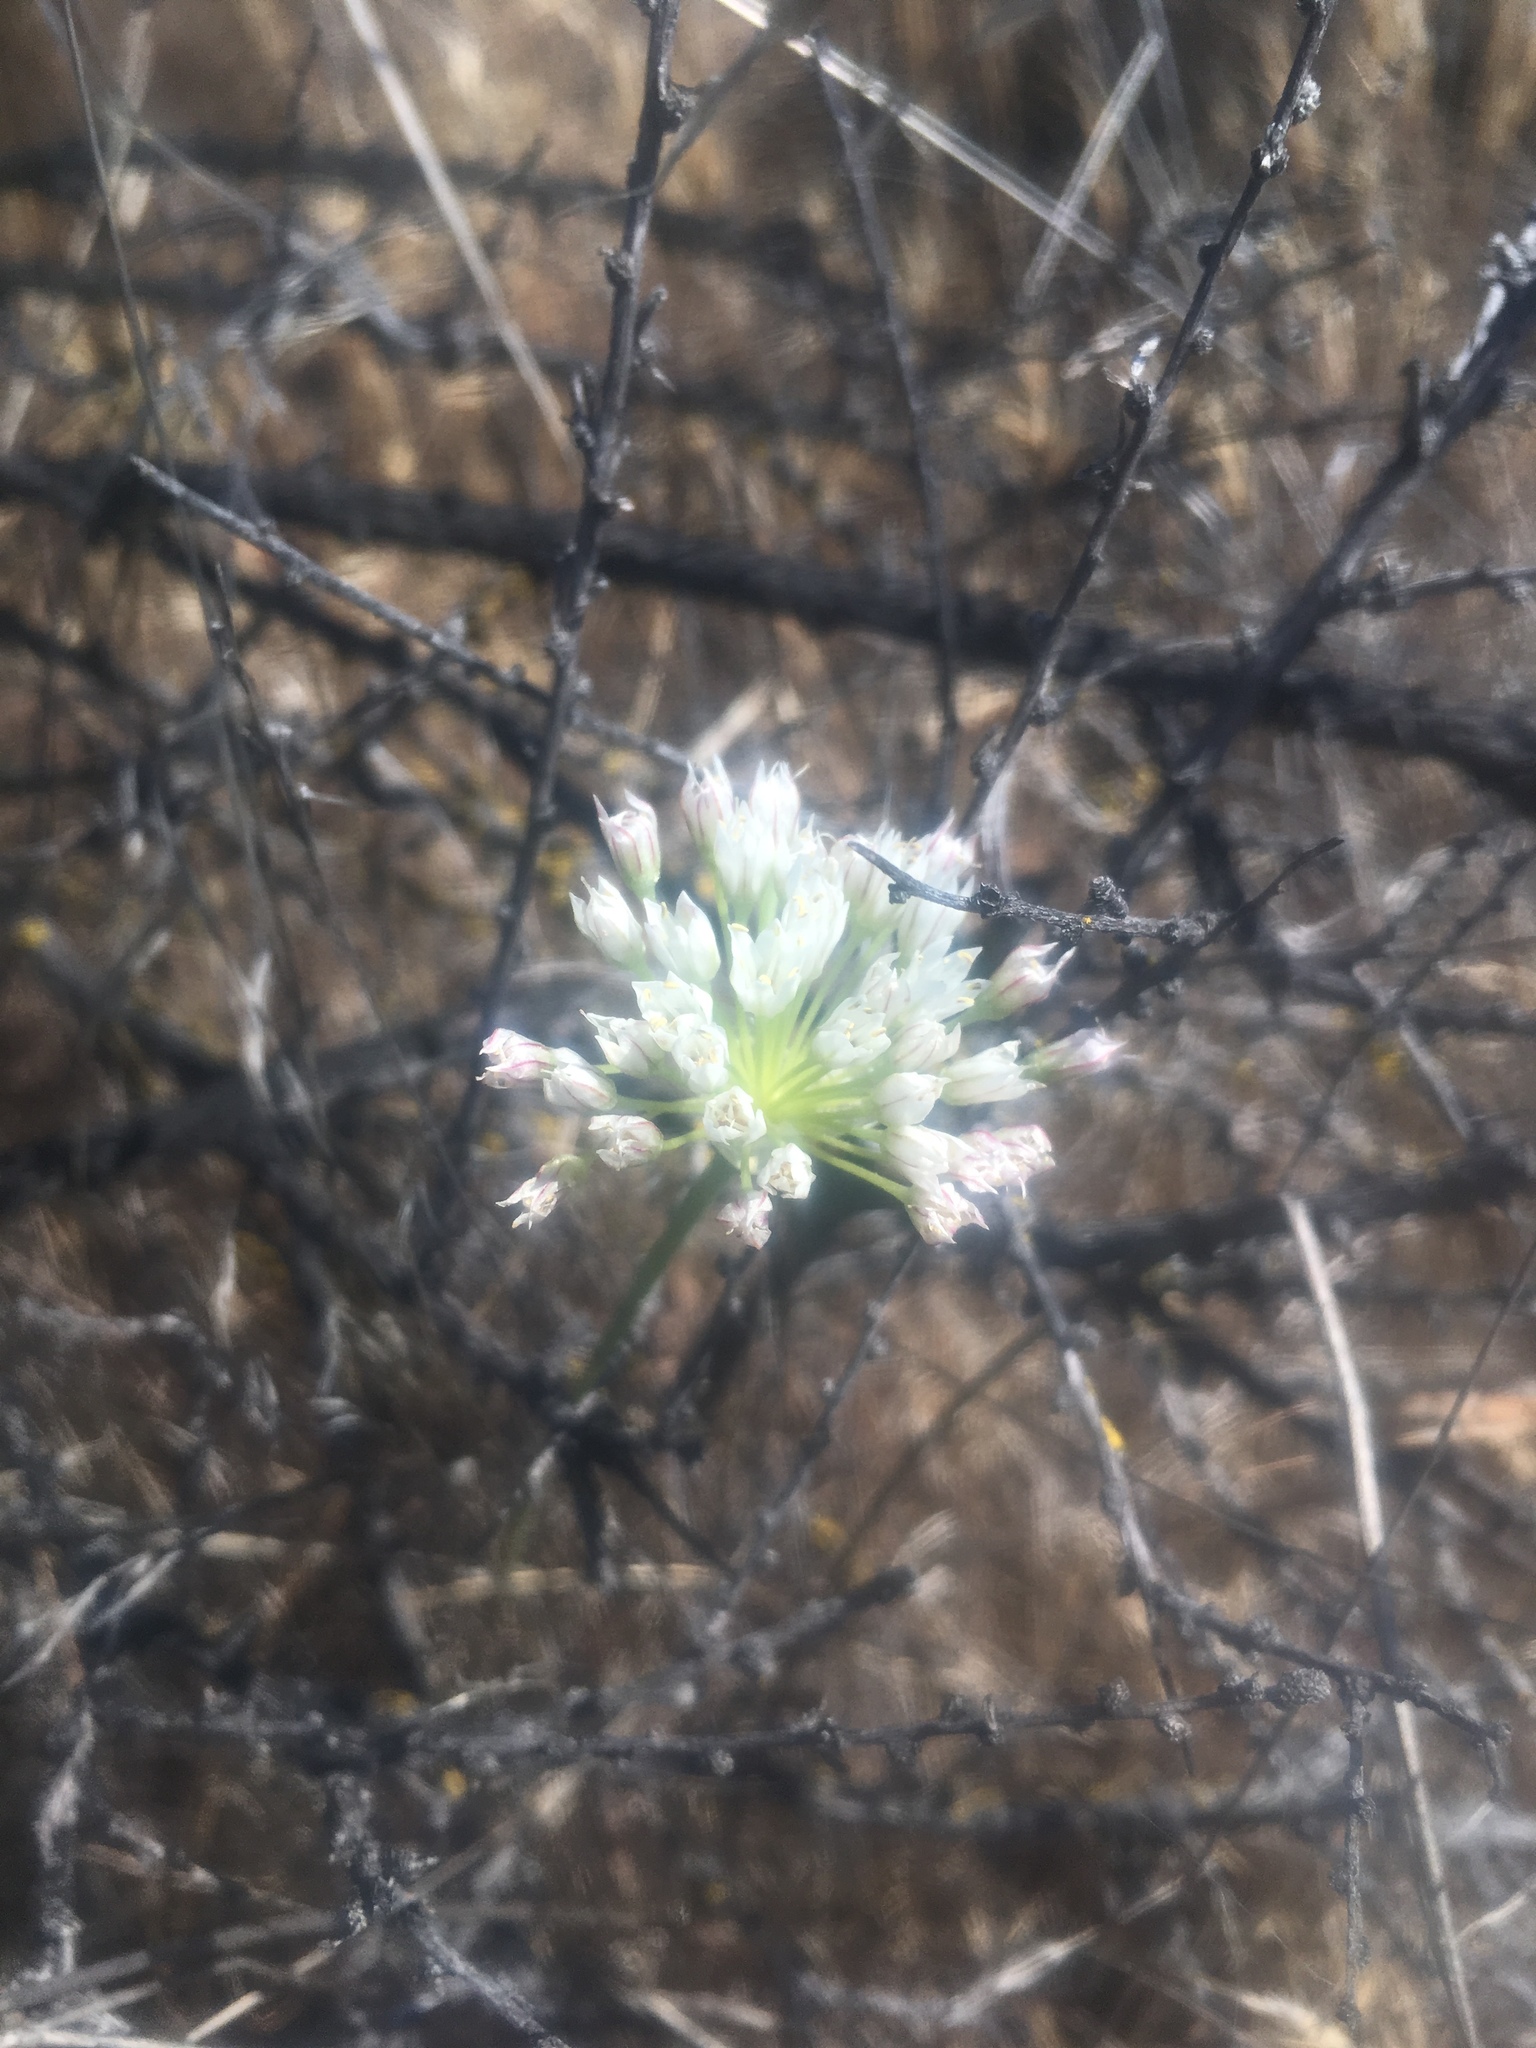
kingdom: Plantae
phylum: Tracheophyta
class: Liliopsida
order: Asparagales
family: Amaryllidaceae
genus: Allium
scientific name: Allium lacunosum
